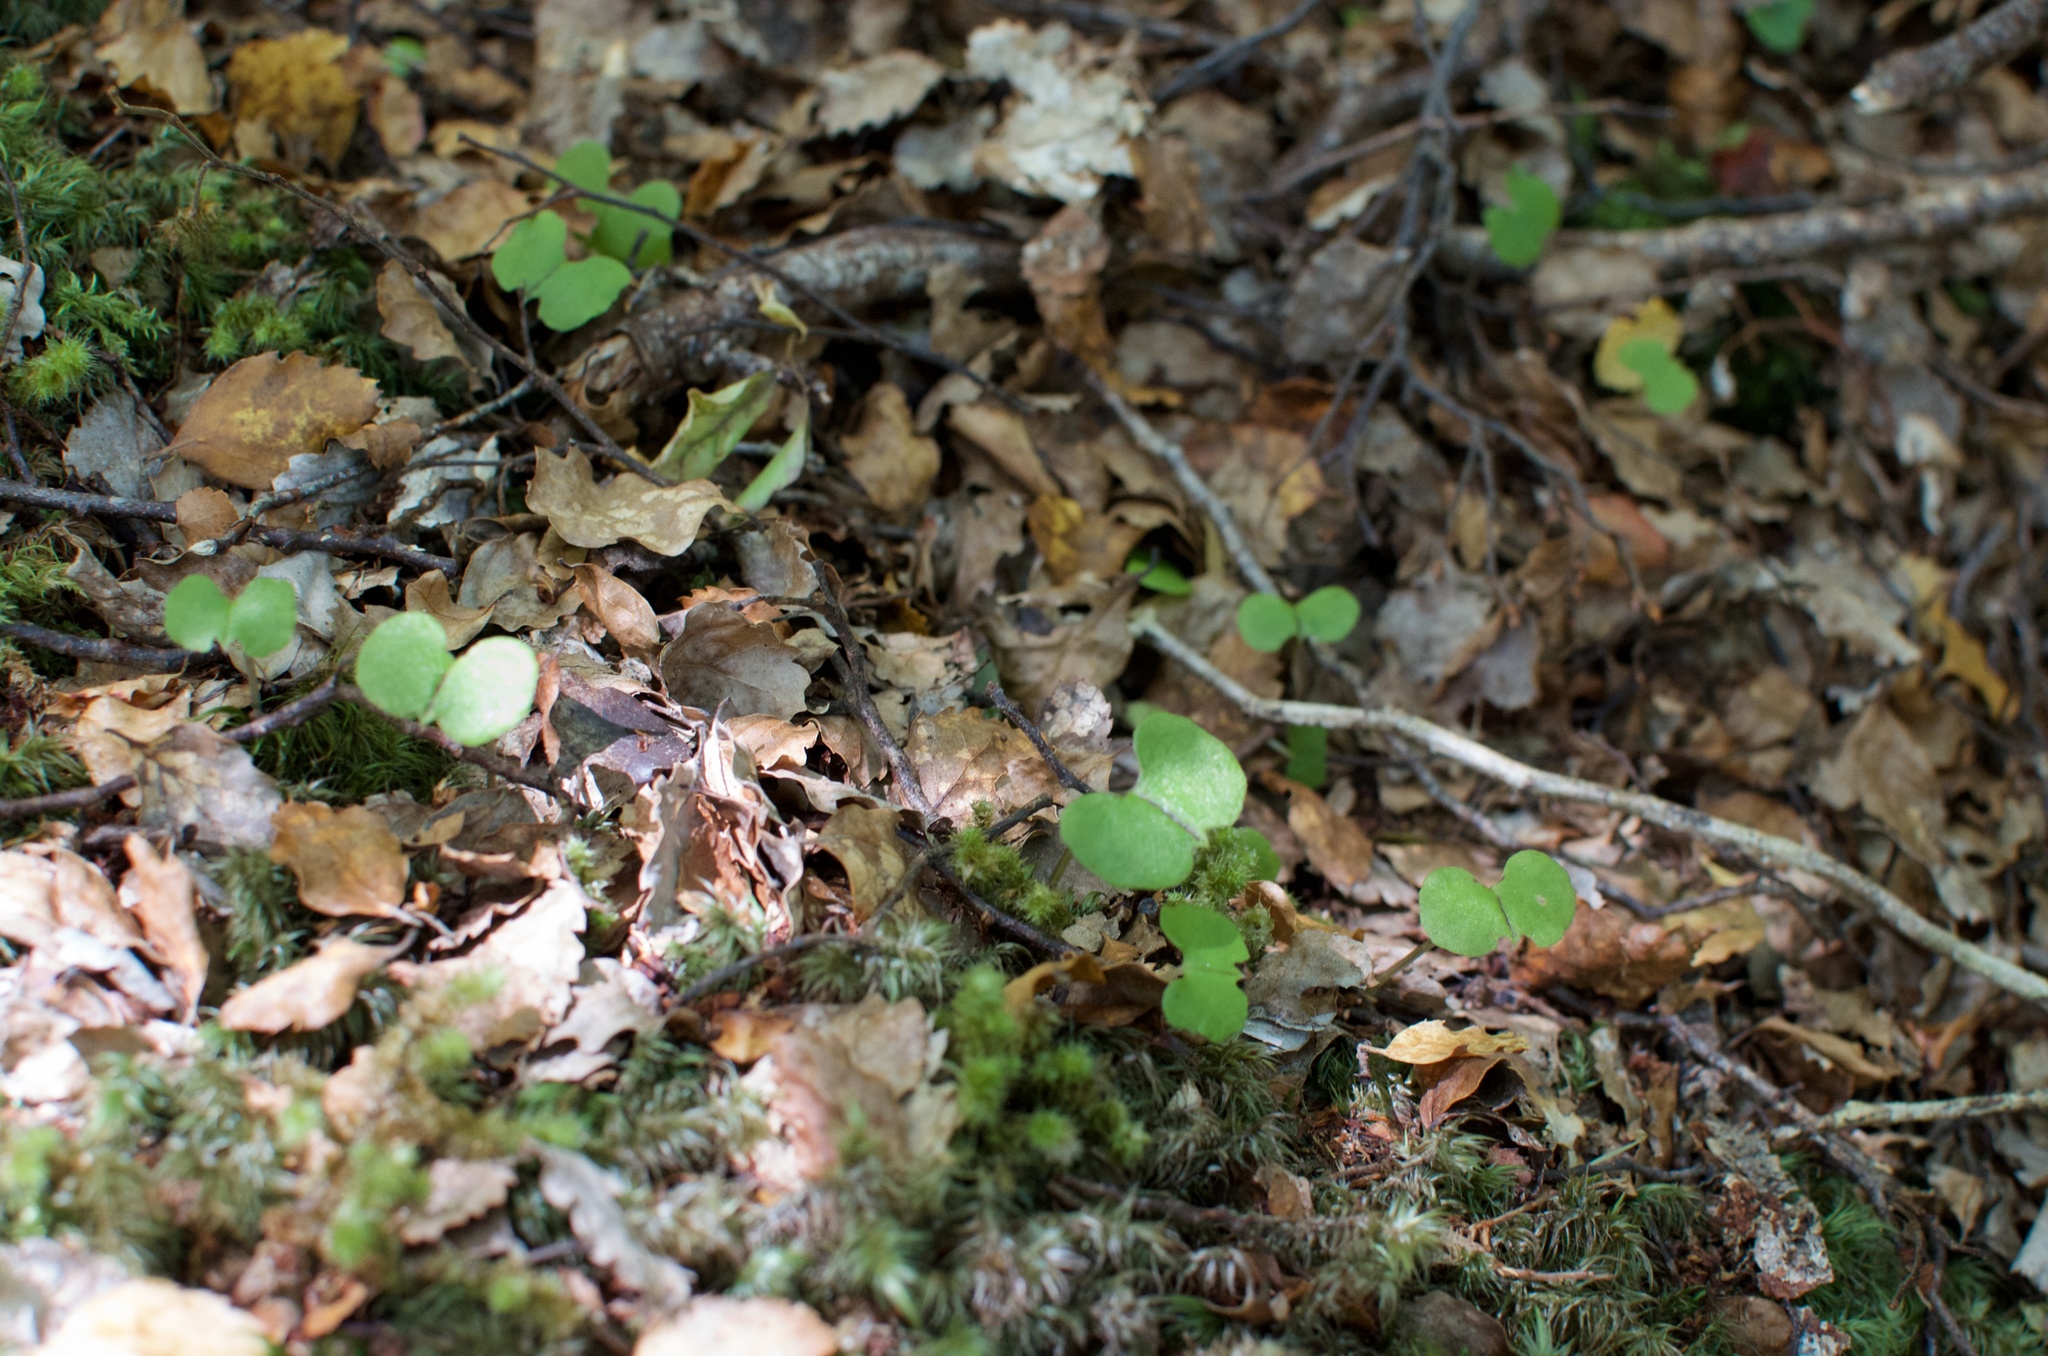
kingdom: Plantae
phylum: Tracheophyta
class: Liliopsida
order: Asparagales
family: Orchidaceae
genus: Corybas
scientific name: Corybas trilobus
